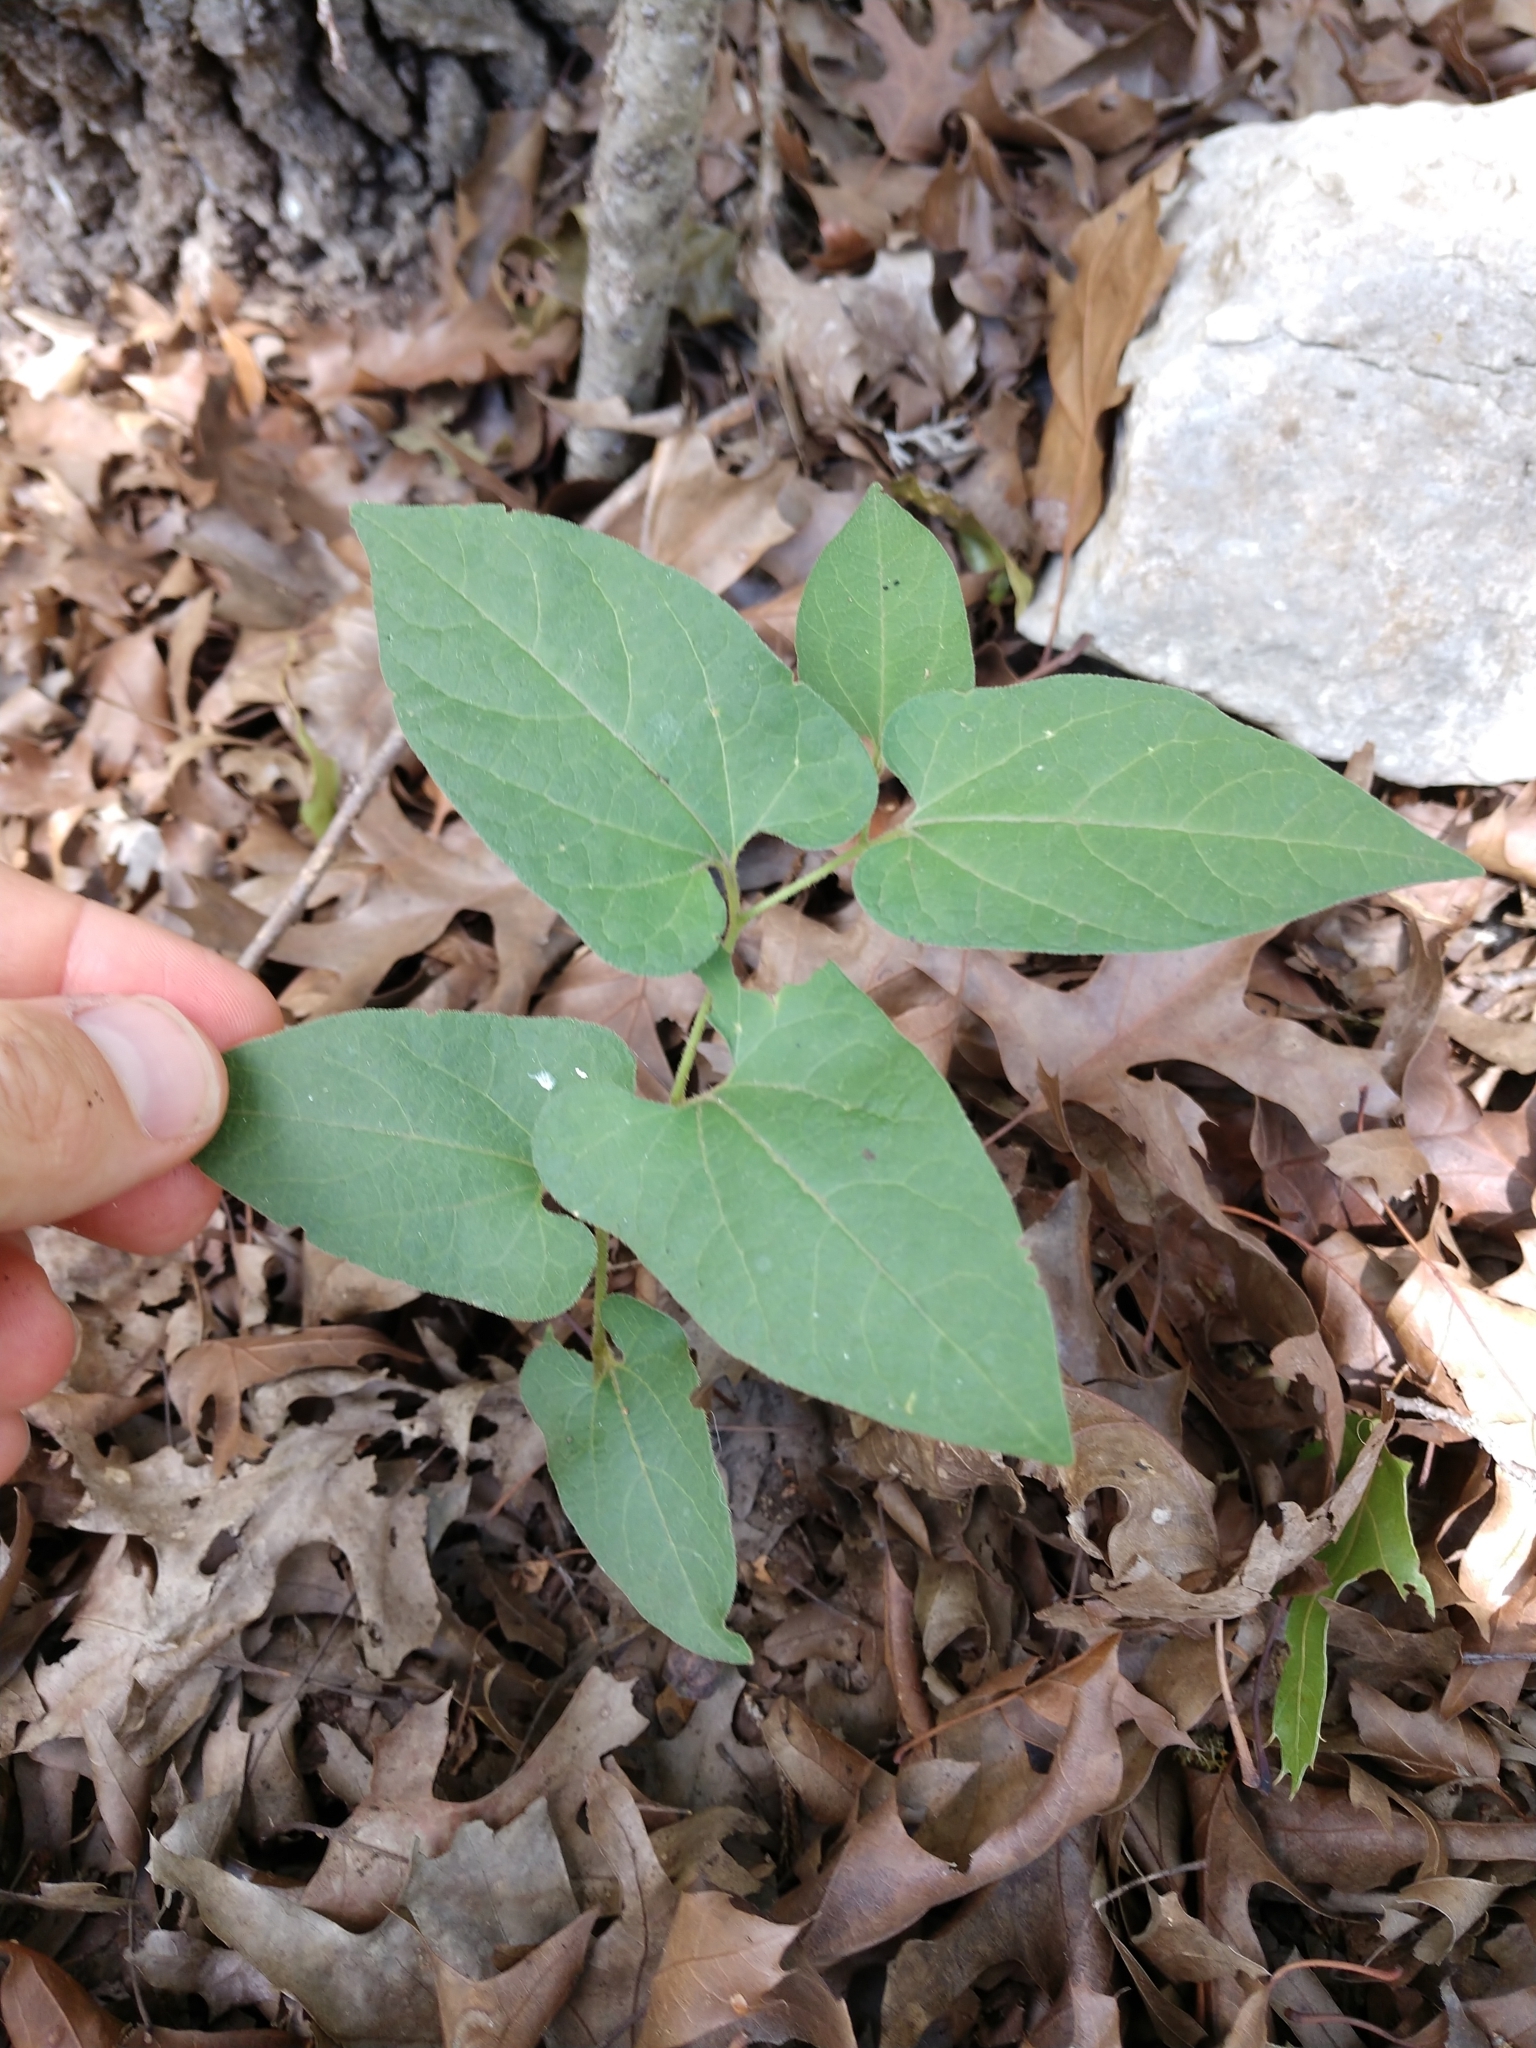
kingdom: Plantae
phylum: Tracheophyta
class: Magnoliopsida
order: Piperales
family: Aristolochiaceae
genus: Endodeca
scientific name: Endodeca serpentaria
